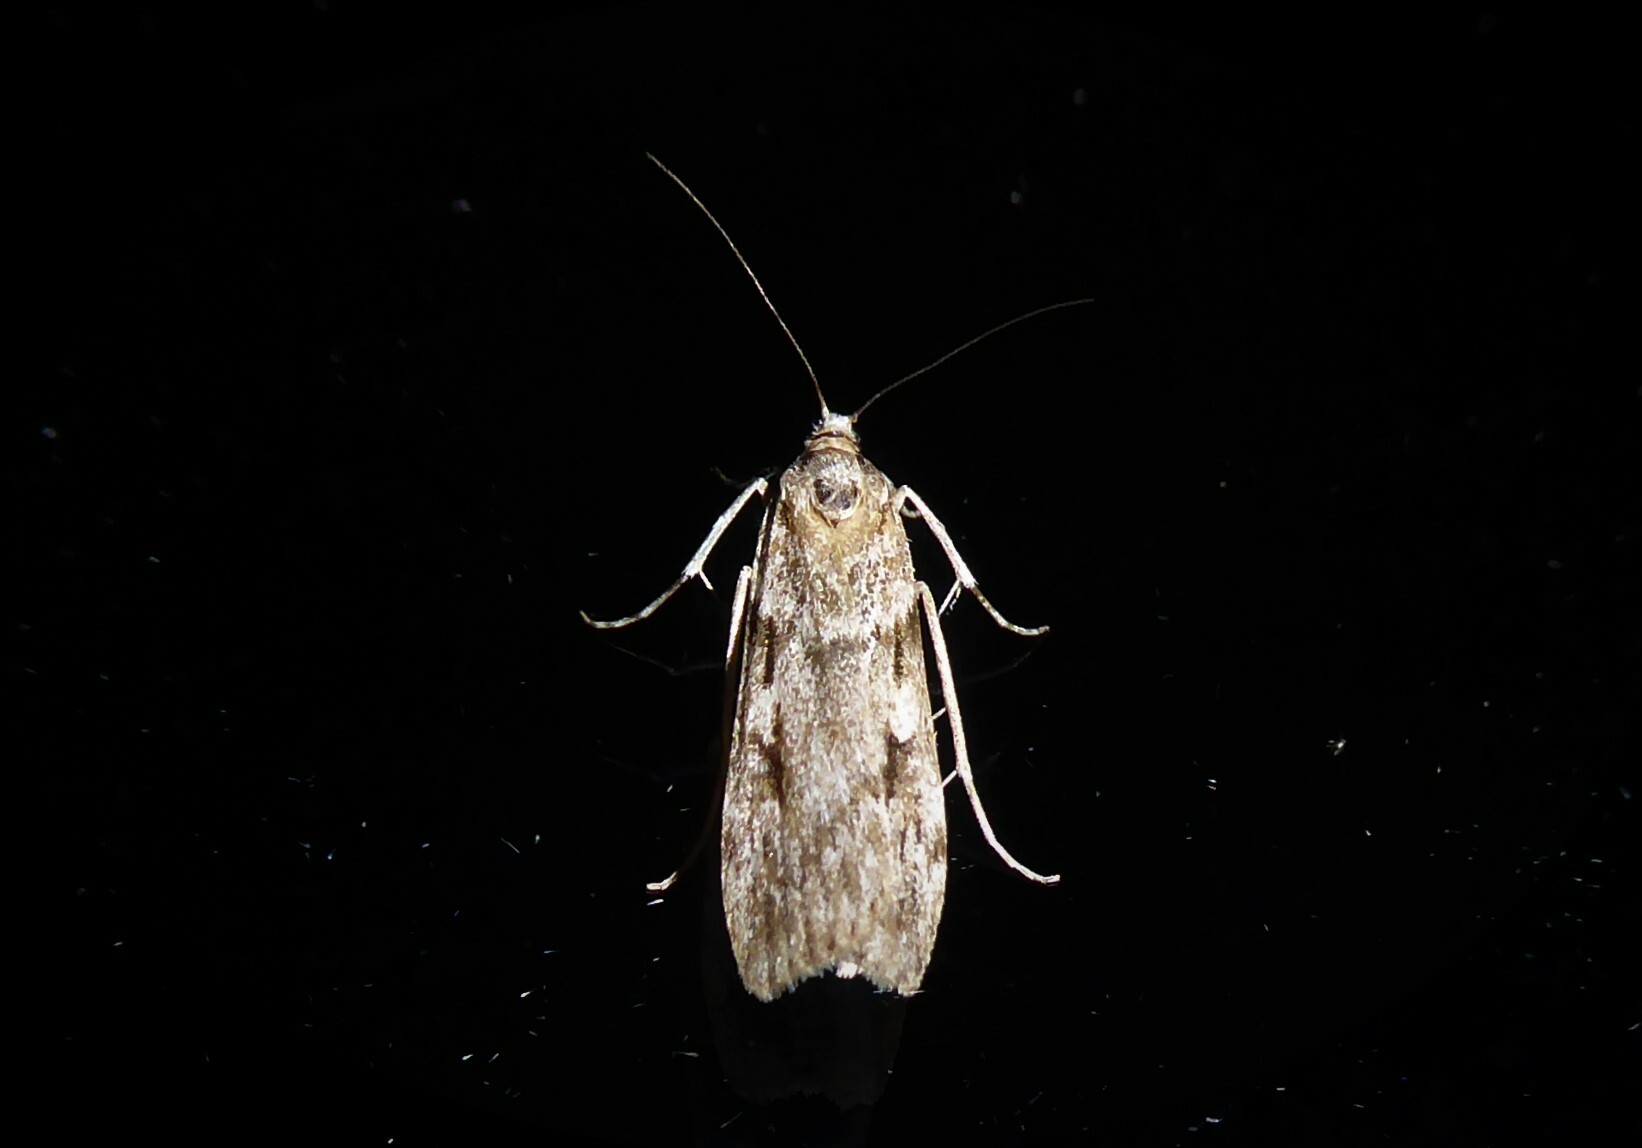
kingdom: Animalia
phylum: Arthropoda
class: Insecta
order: Lepidoptera
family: Crambidae
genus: Scoparia
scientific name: Scoparia halopis
